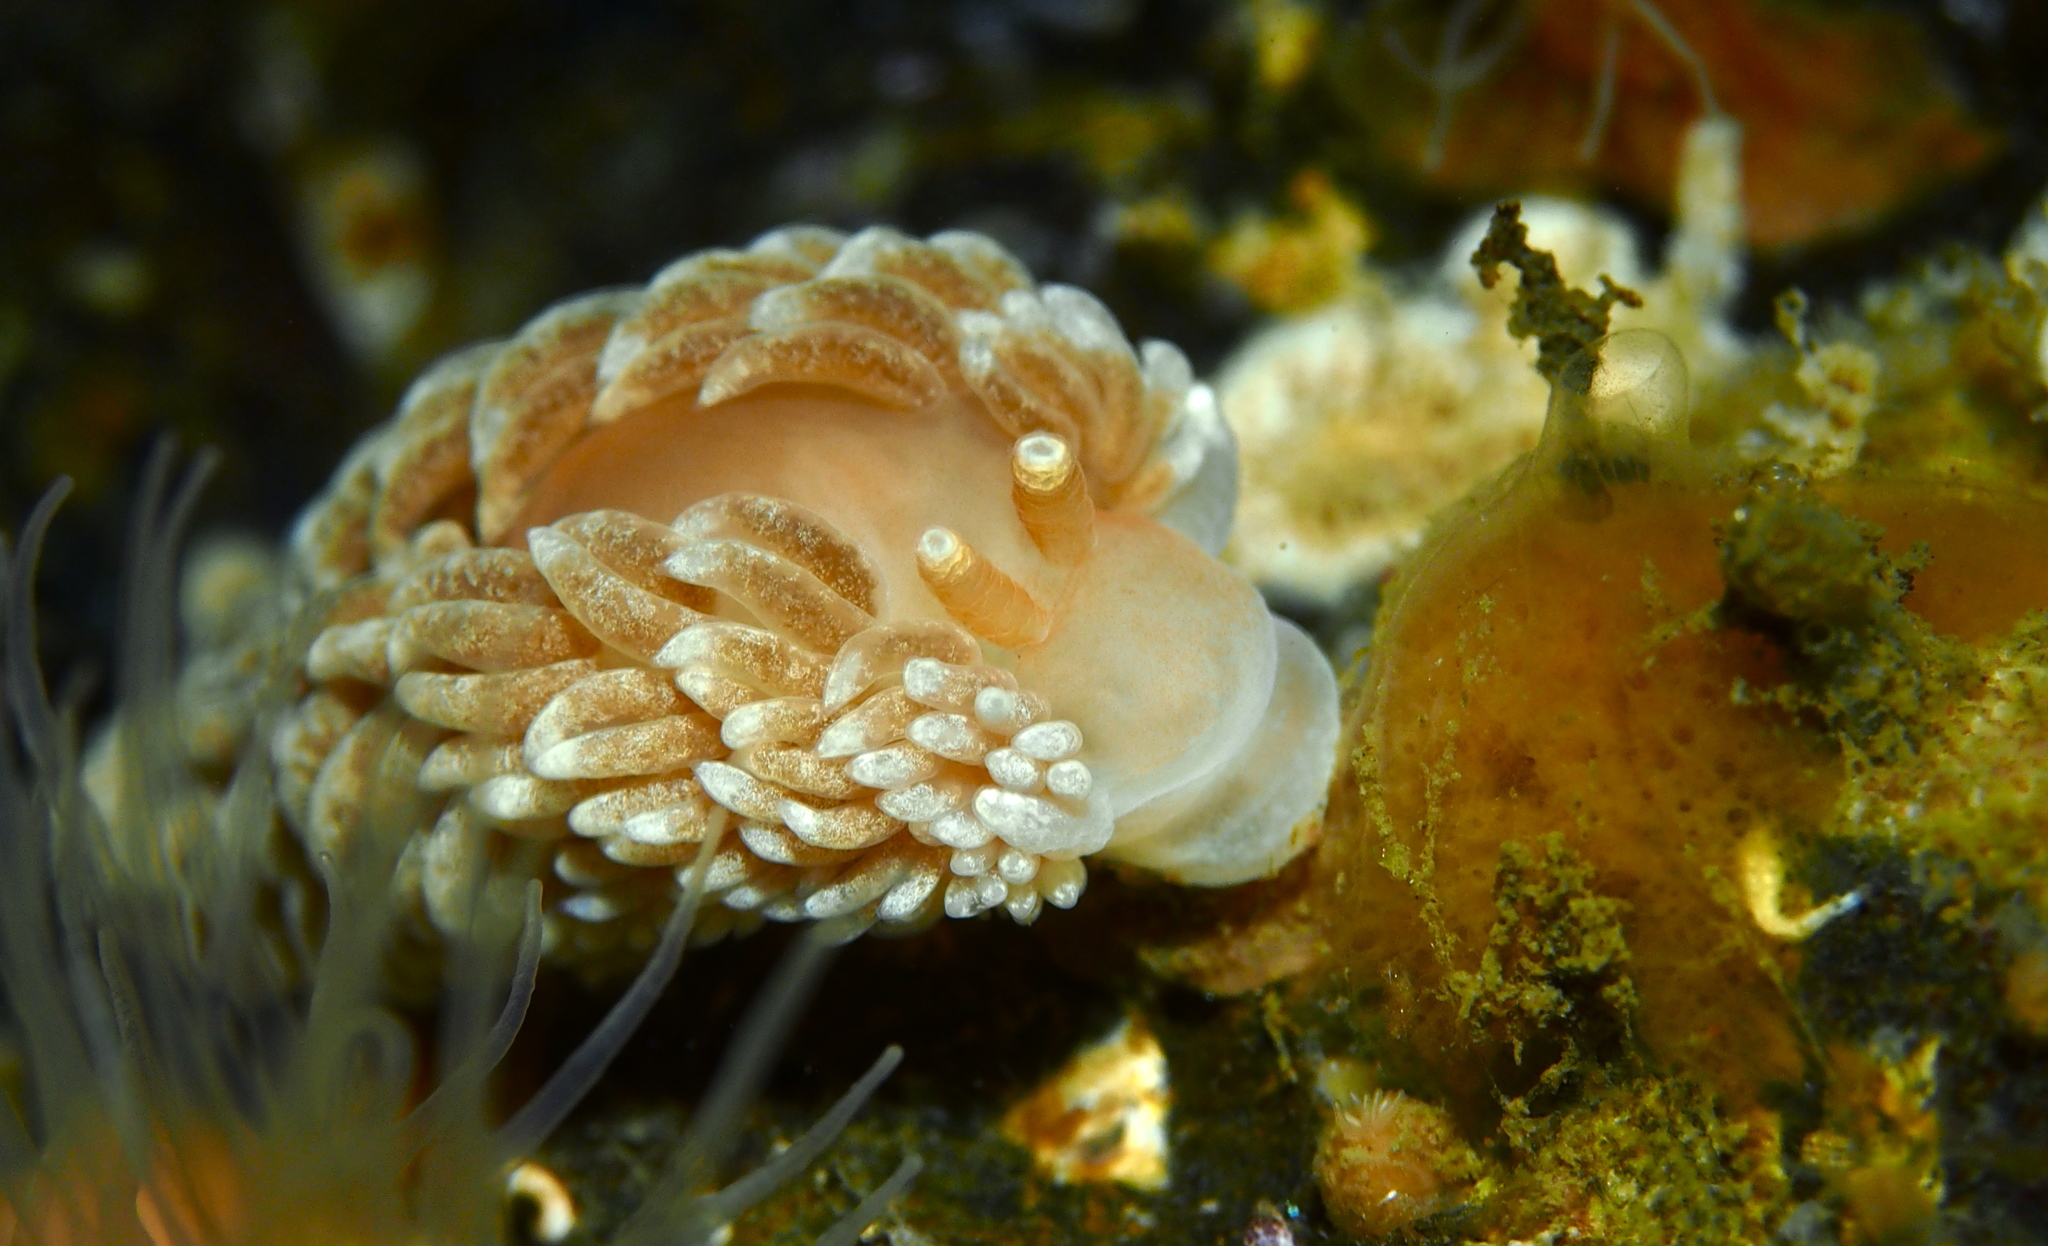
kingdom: Animalia
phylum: Mollusca
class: Gastropoda
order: Nudibranchia
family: Aeolidiidae
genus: Aeolidiella
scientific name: Aeolidiella glauca
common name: Orange-brown aeolid
